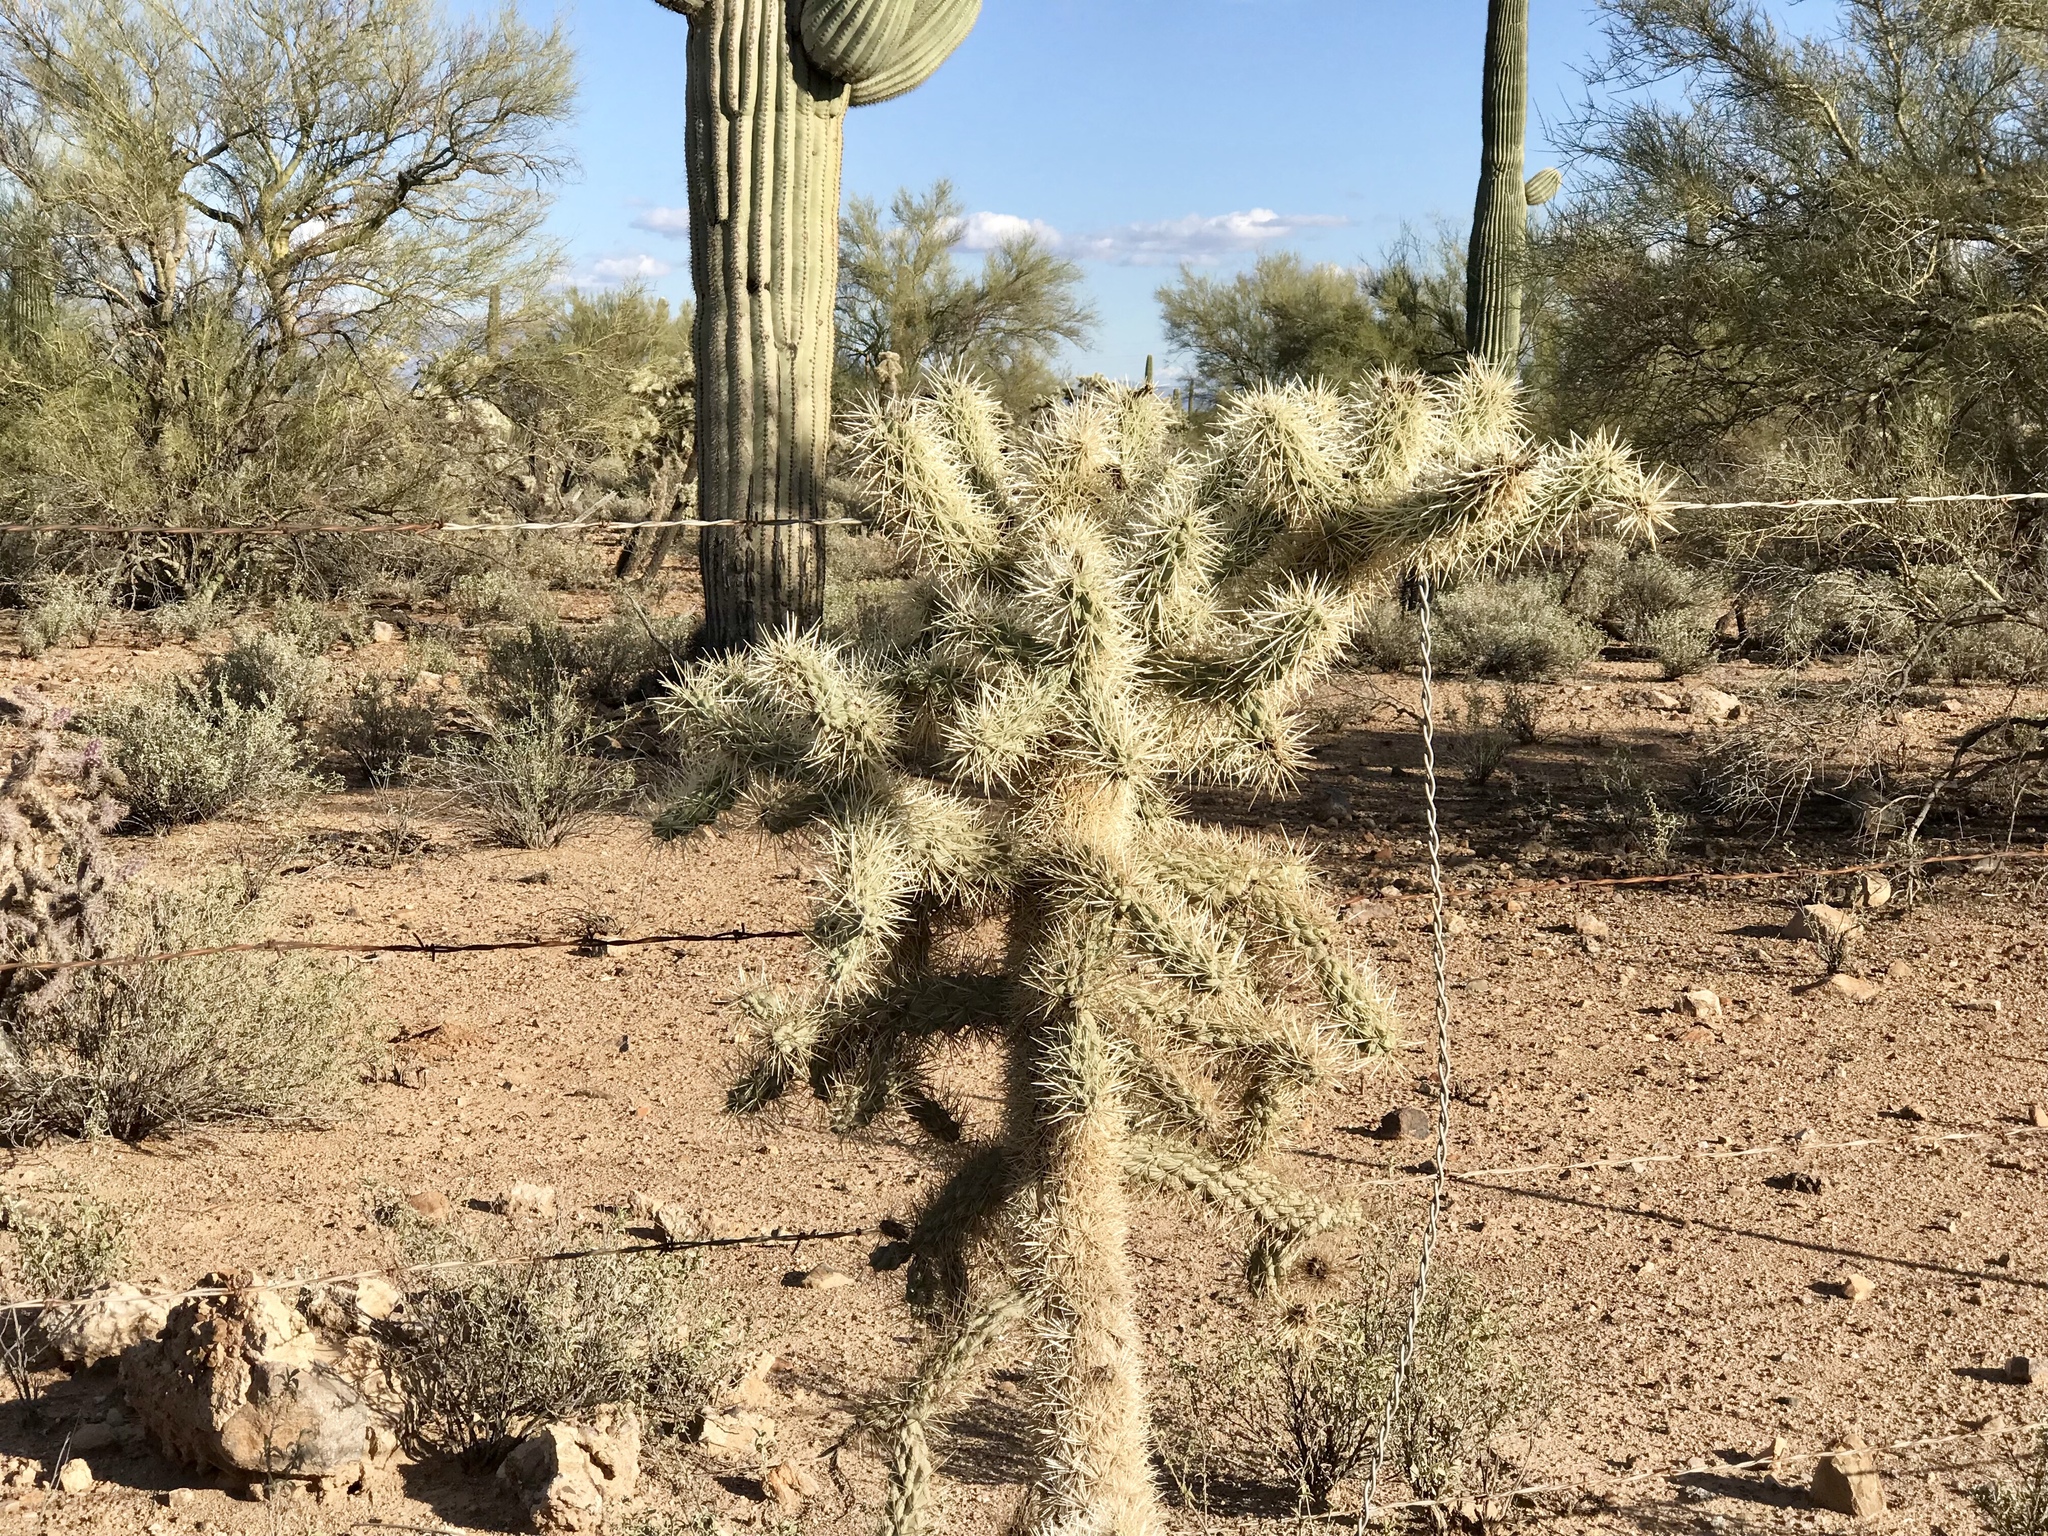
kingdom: Plantae
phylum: Tracheophyta
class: Magnoliopsida
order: Caryophyllales
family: Cactaceae
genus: Cylindropuntia
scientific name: Cylindropuntia fulgida
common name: Jumping cholla
